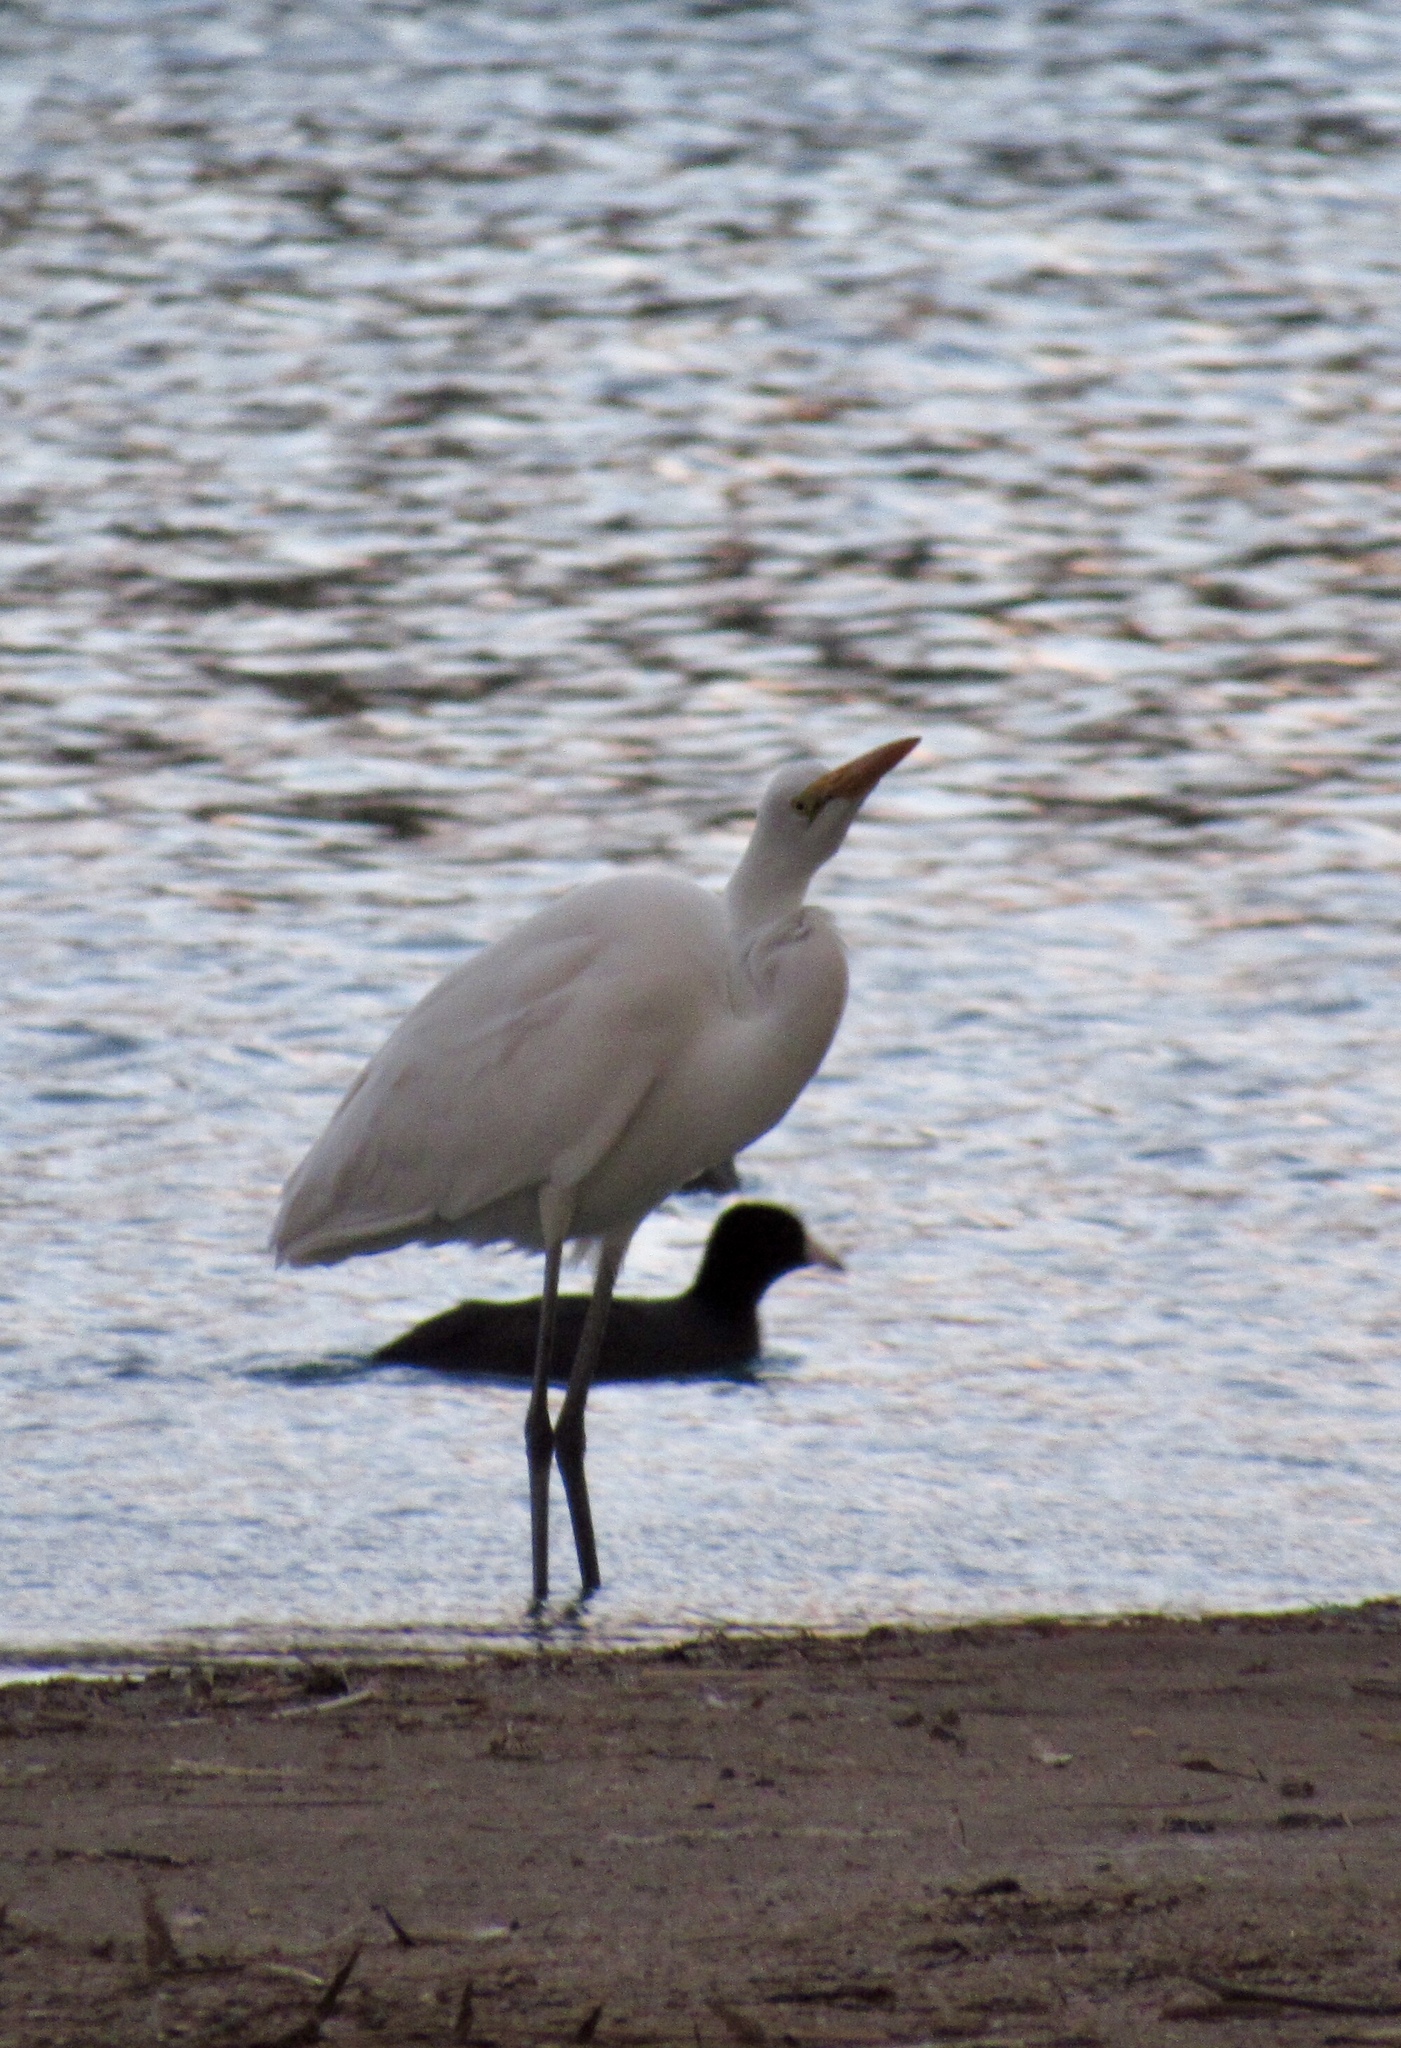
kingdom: Animalia
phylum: Chordata
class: Aves
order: Pelecaniformes
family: Ardeidae
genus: Ardea
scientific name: Ardea alba
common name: Great egret
